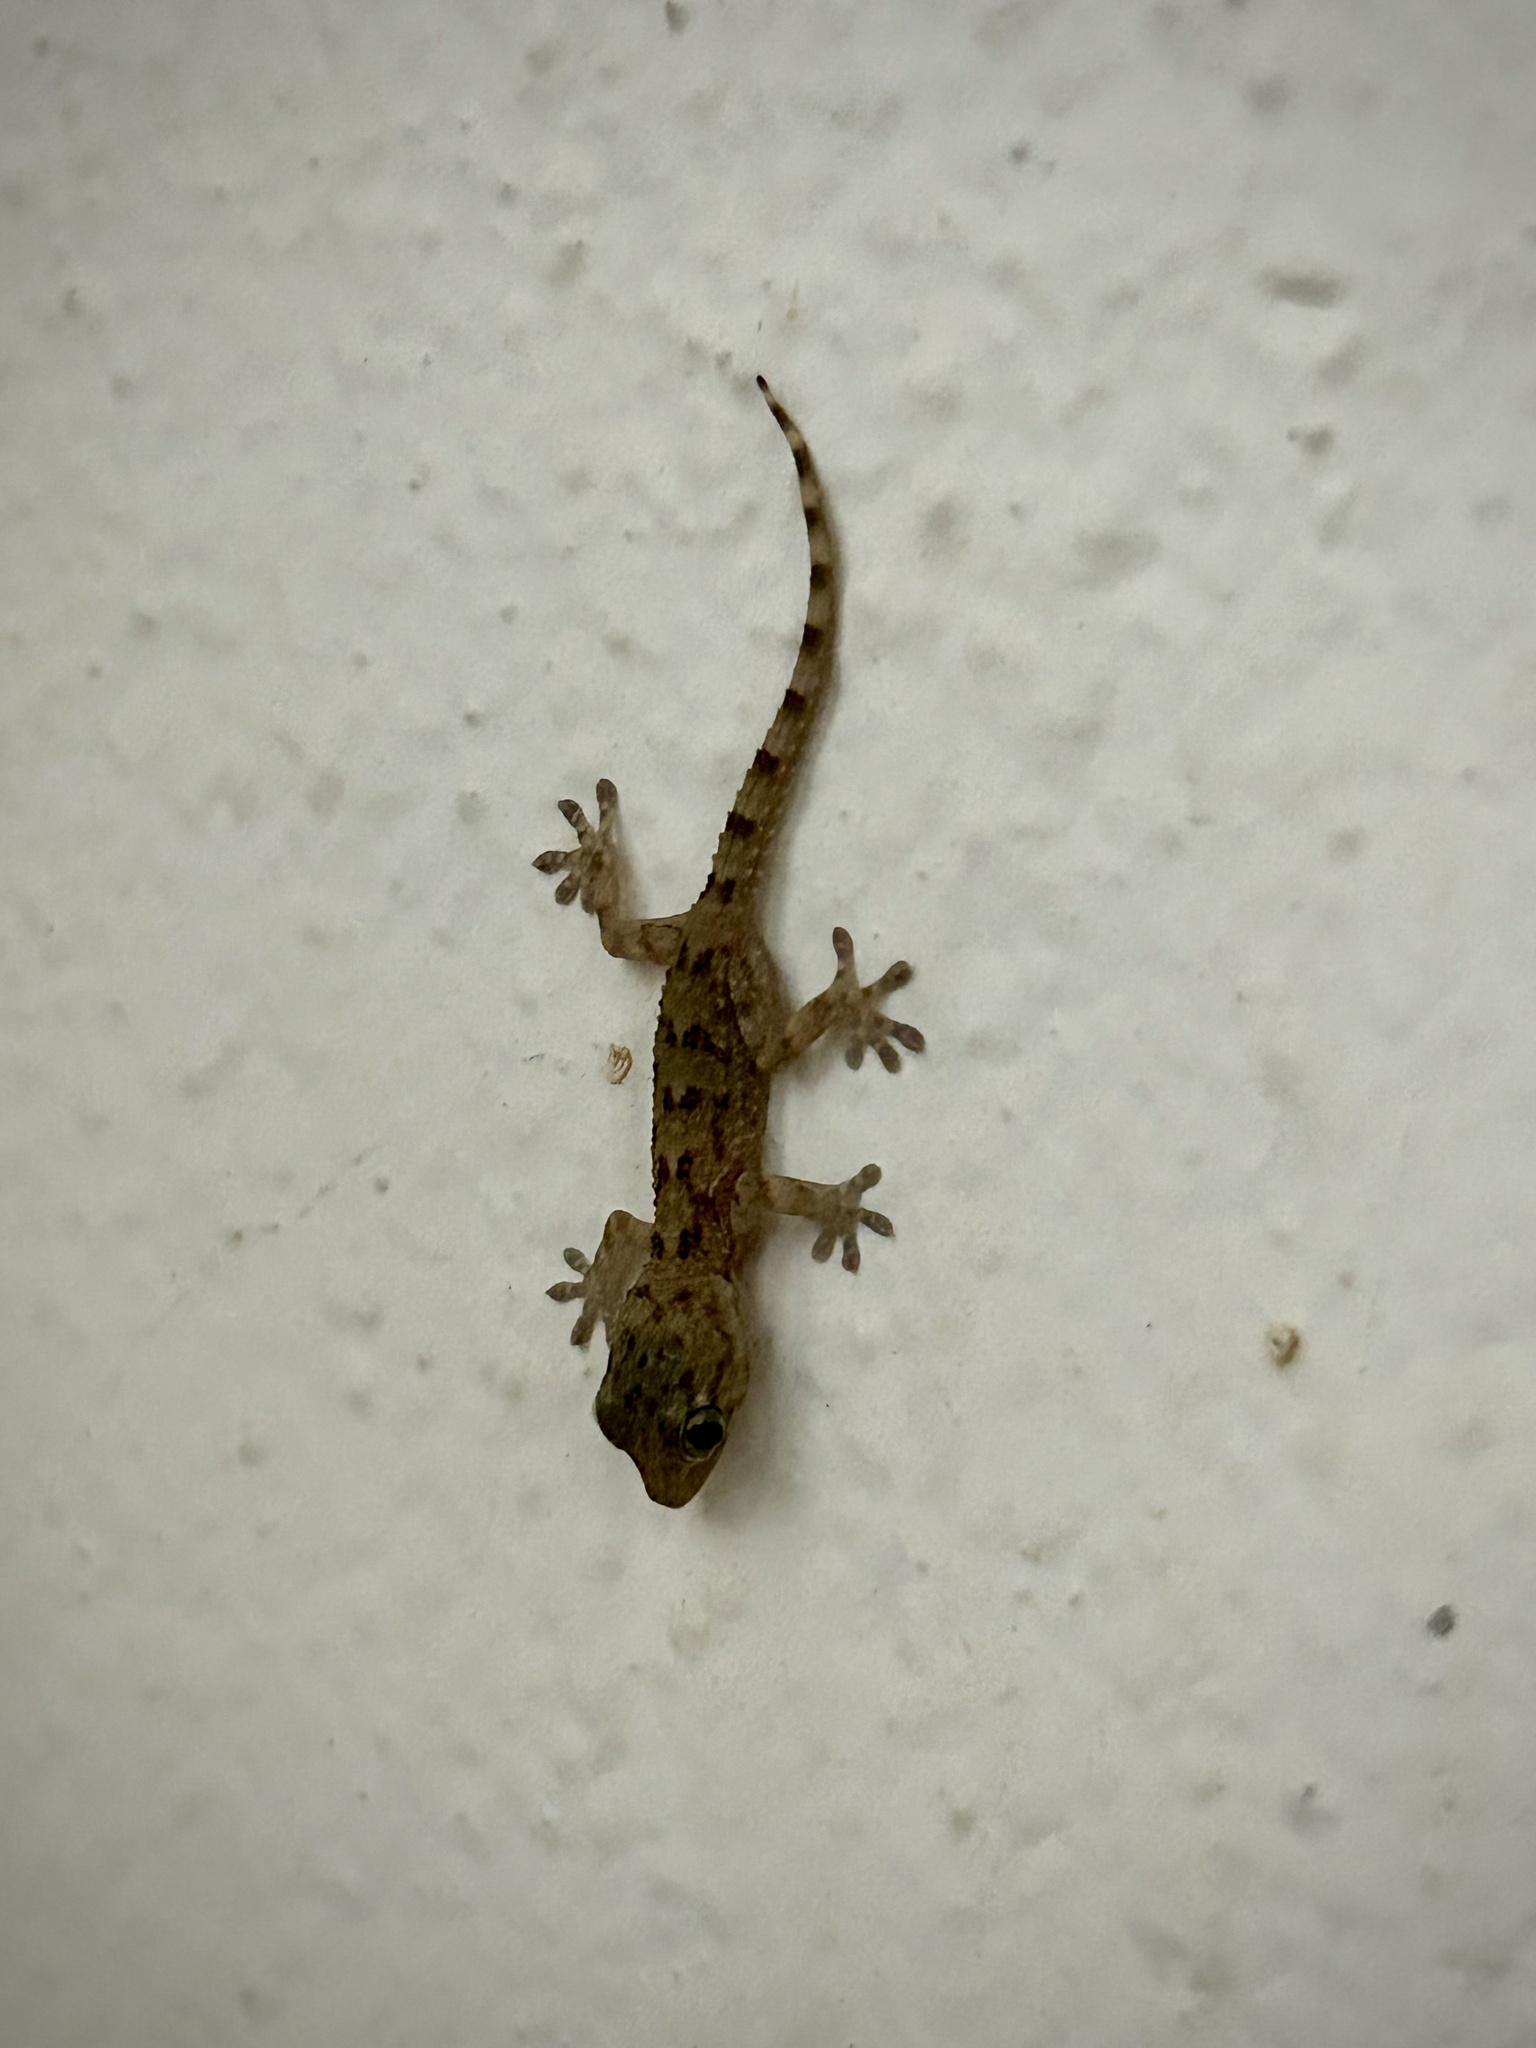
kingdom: Animalia
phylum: Chordata
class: Squamata
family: Phyllodactylidae
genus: Tarentola
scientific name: Tarentola angustimentalis
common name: East canary gecko
